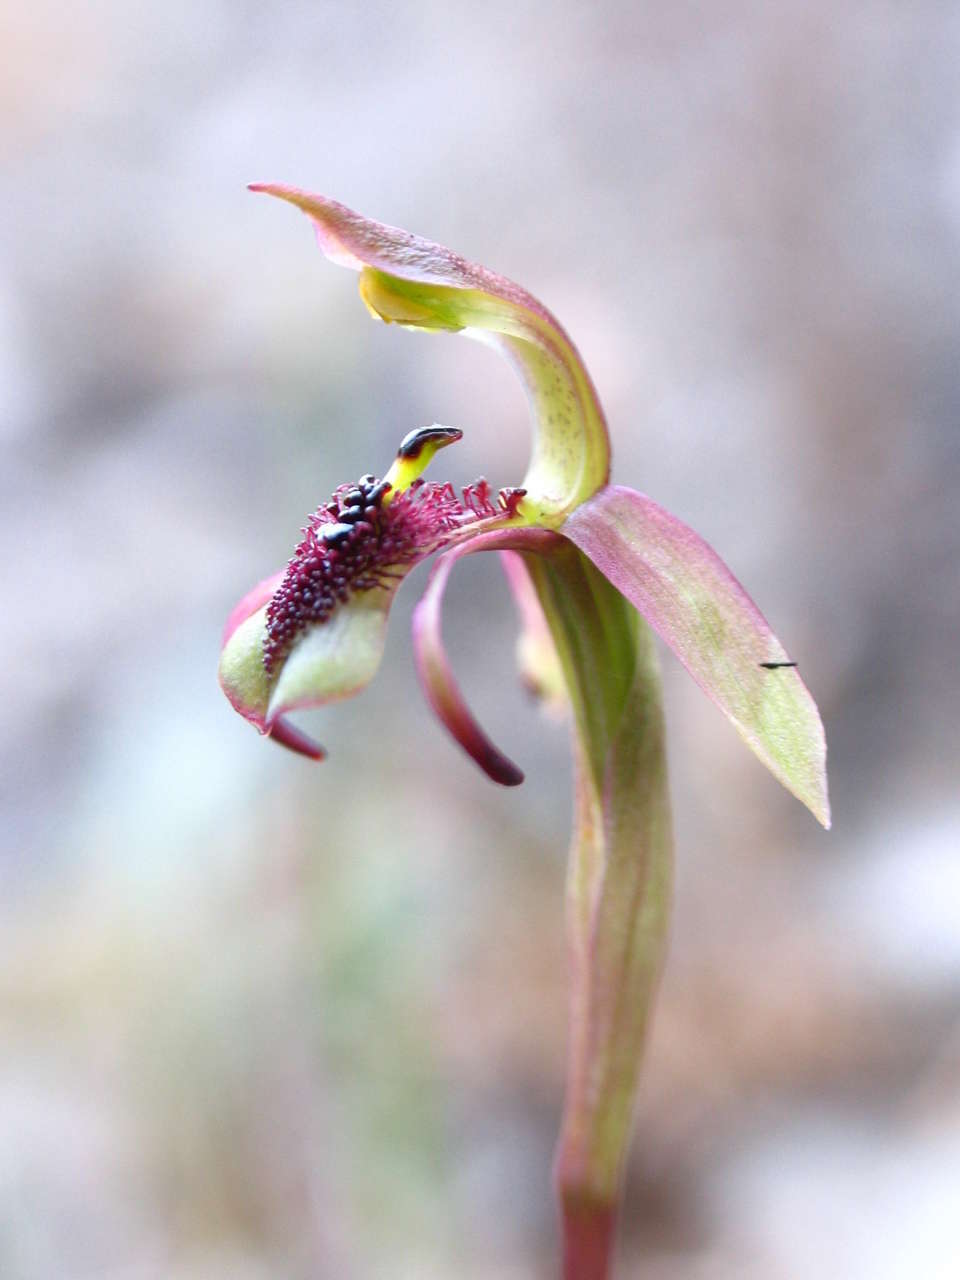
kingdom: Plantae
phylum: Tracheophyta
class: Liliopsida
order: Asparagales
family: Orchidaceae
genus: Chiloglottis
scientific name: Chiloglottis curviclavia
